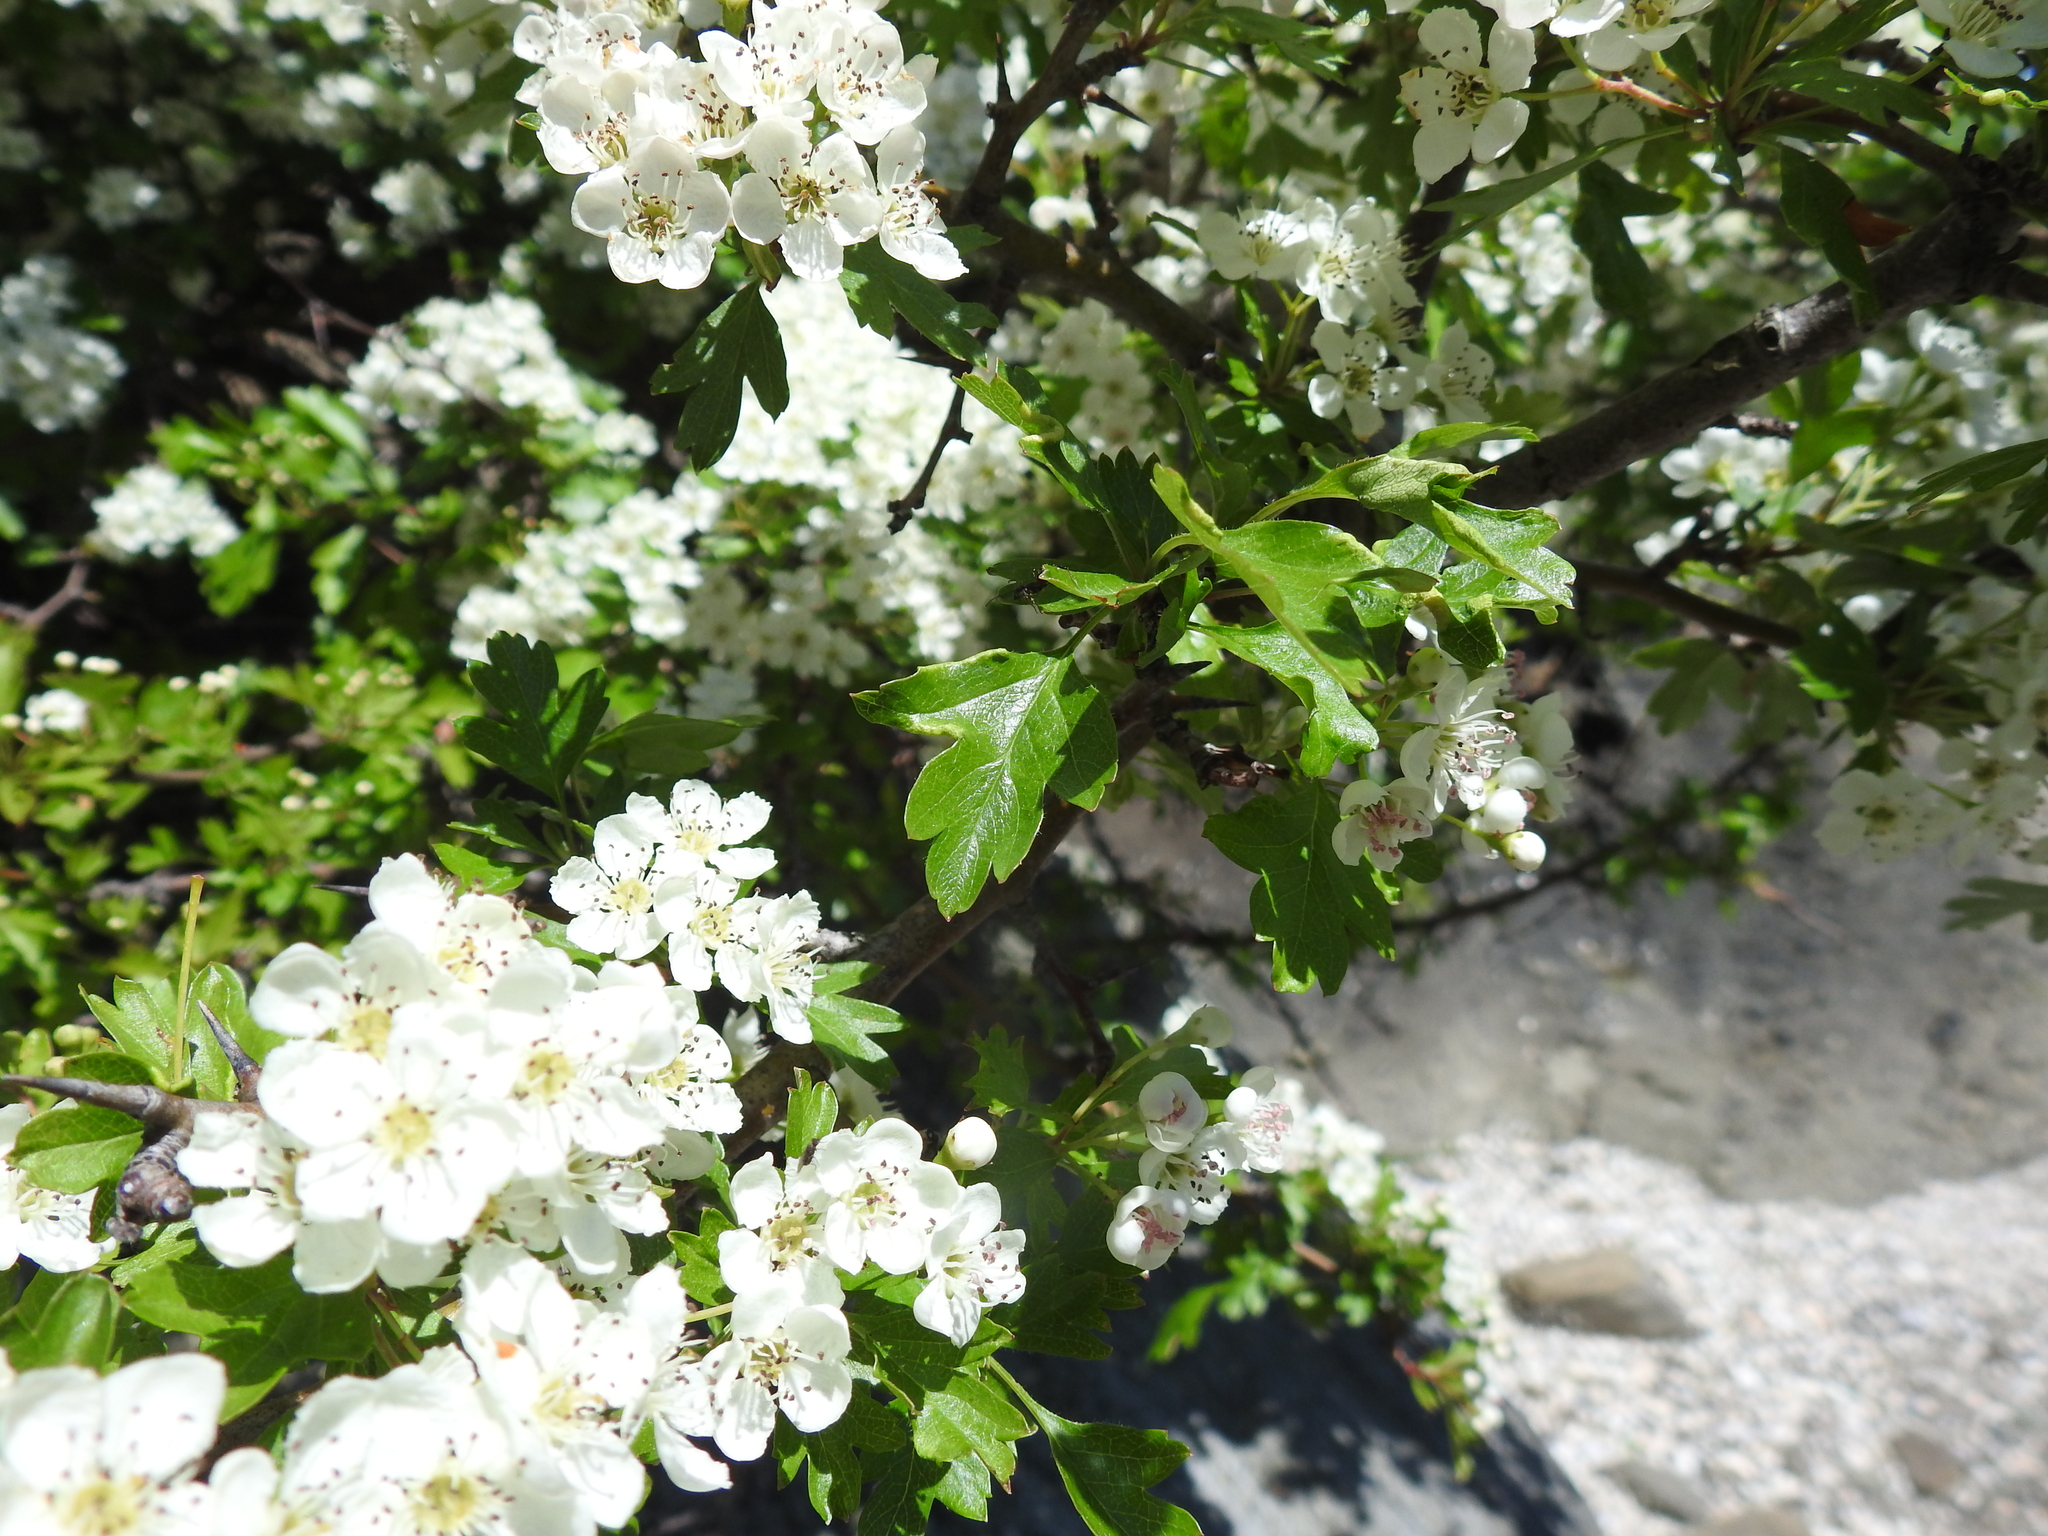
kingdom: Plantae
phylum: Tracheophyta
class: Magnoliopsida
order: Rosales
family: Rosaceae
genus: Crataegus
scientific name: Crataegus monogyna
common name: Hawthorn
